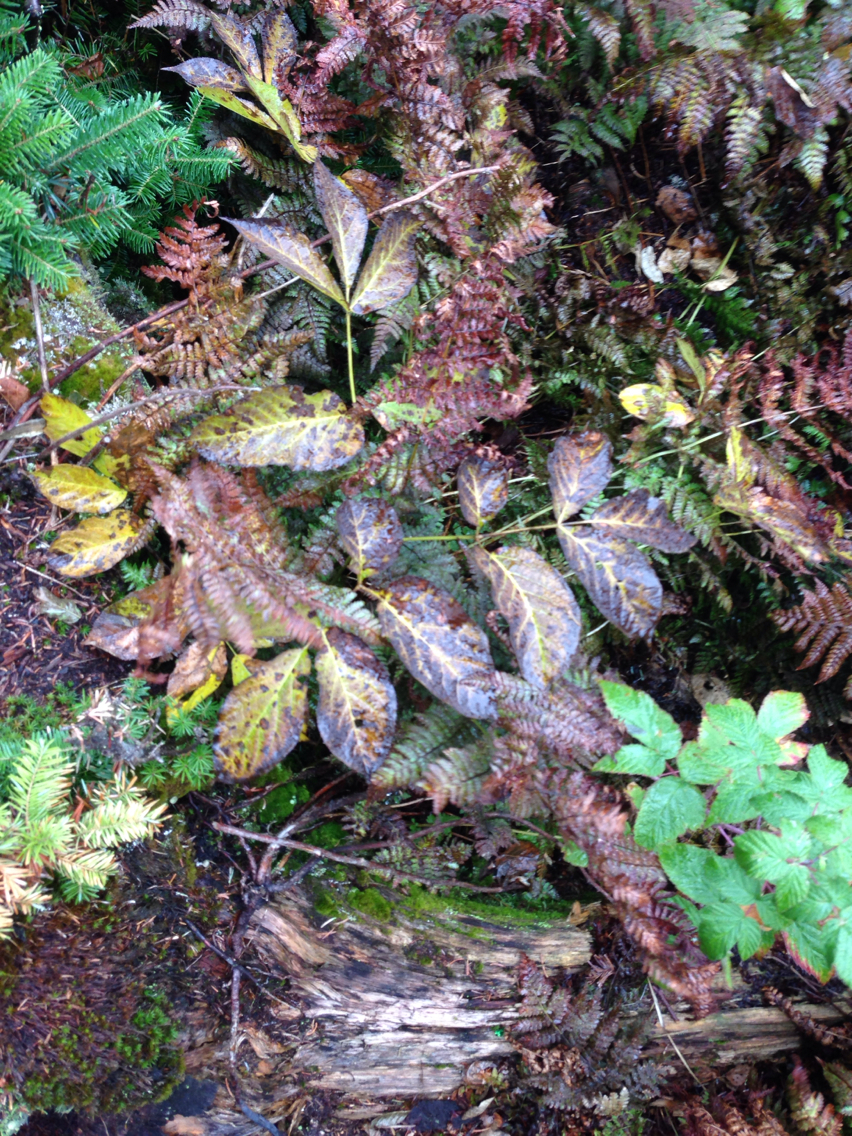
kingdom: Plantae
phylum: Tracheophyta
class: Magnoliopsida
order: Apiales
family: Araliaceae
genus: Aralia
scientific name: Aralia nudicaulis
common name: Wild sarsaparilla
